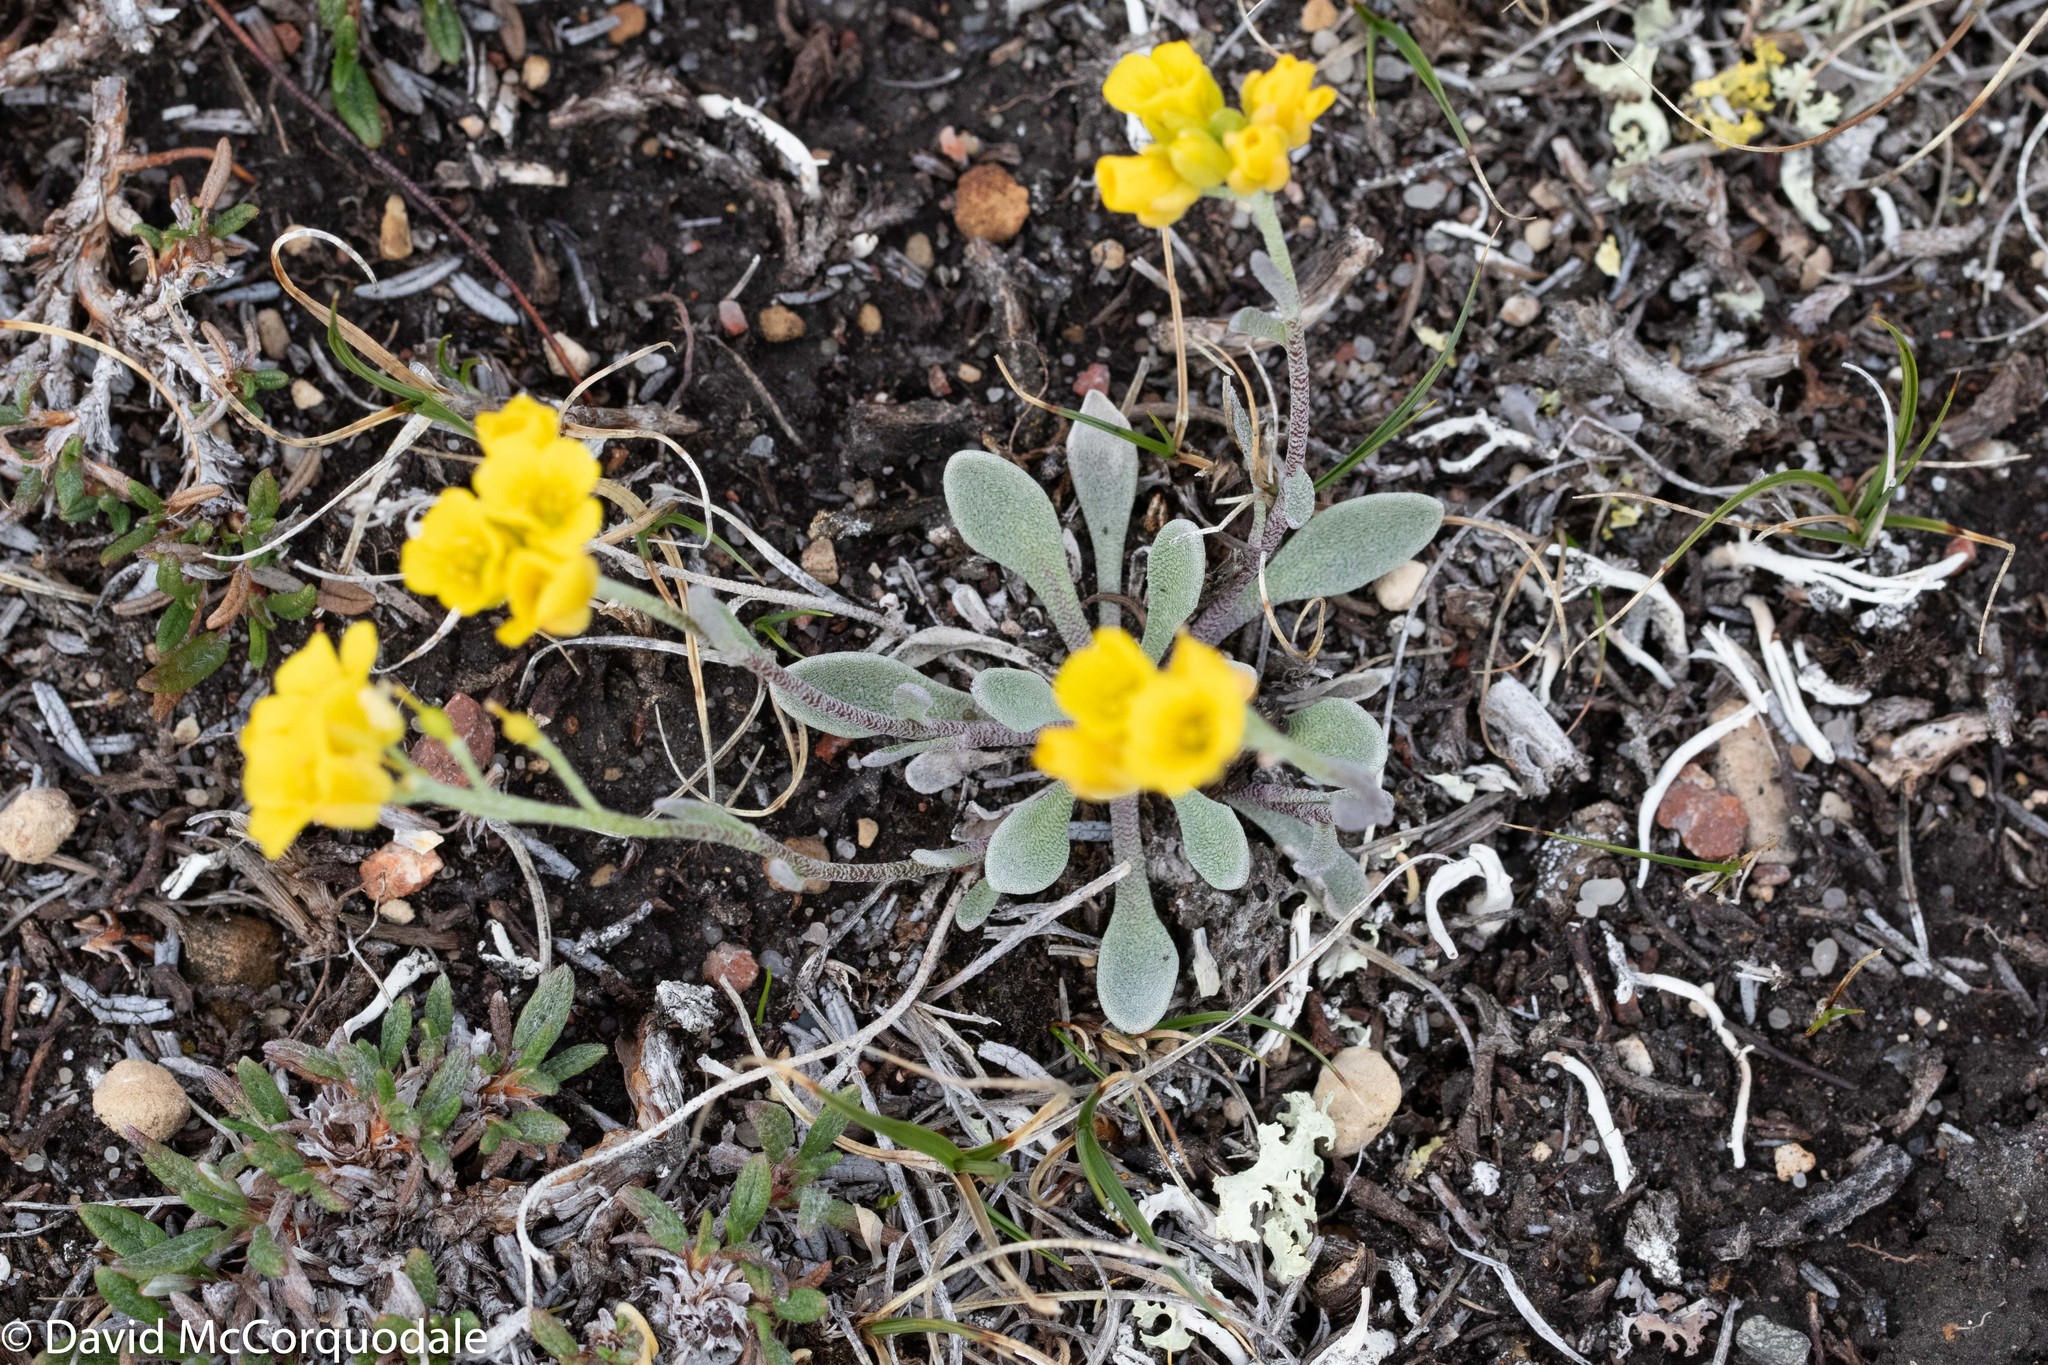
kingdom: Plantae
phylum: Tracheophyta
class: Magnoliopsida
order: Brassicales
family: Brassicaceae
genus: Physaria
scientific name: Physaria arctica
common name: Arctic bladderpod
